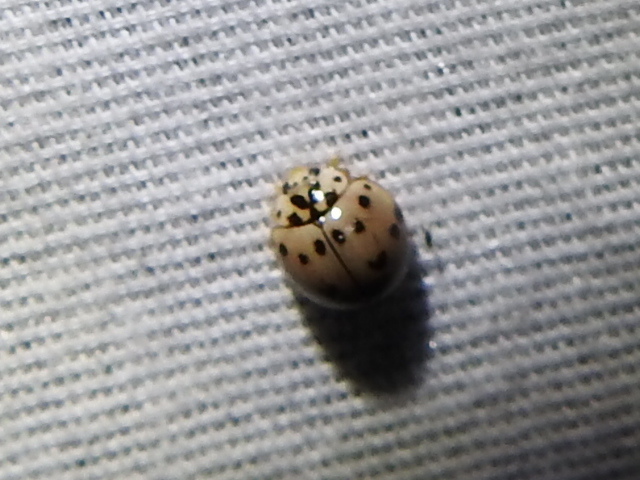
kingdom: Animalia
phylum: Arthropoda
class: Insecta
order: Coleoptera
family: Coccinellidae
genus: Olla
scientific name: Olla v-nigrum
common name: Ashy gray lady beetle
